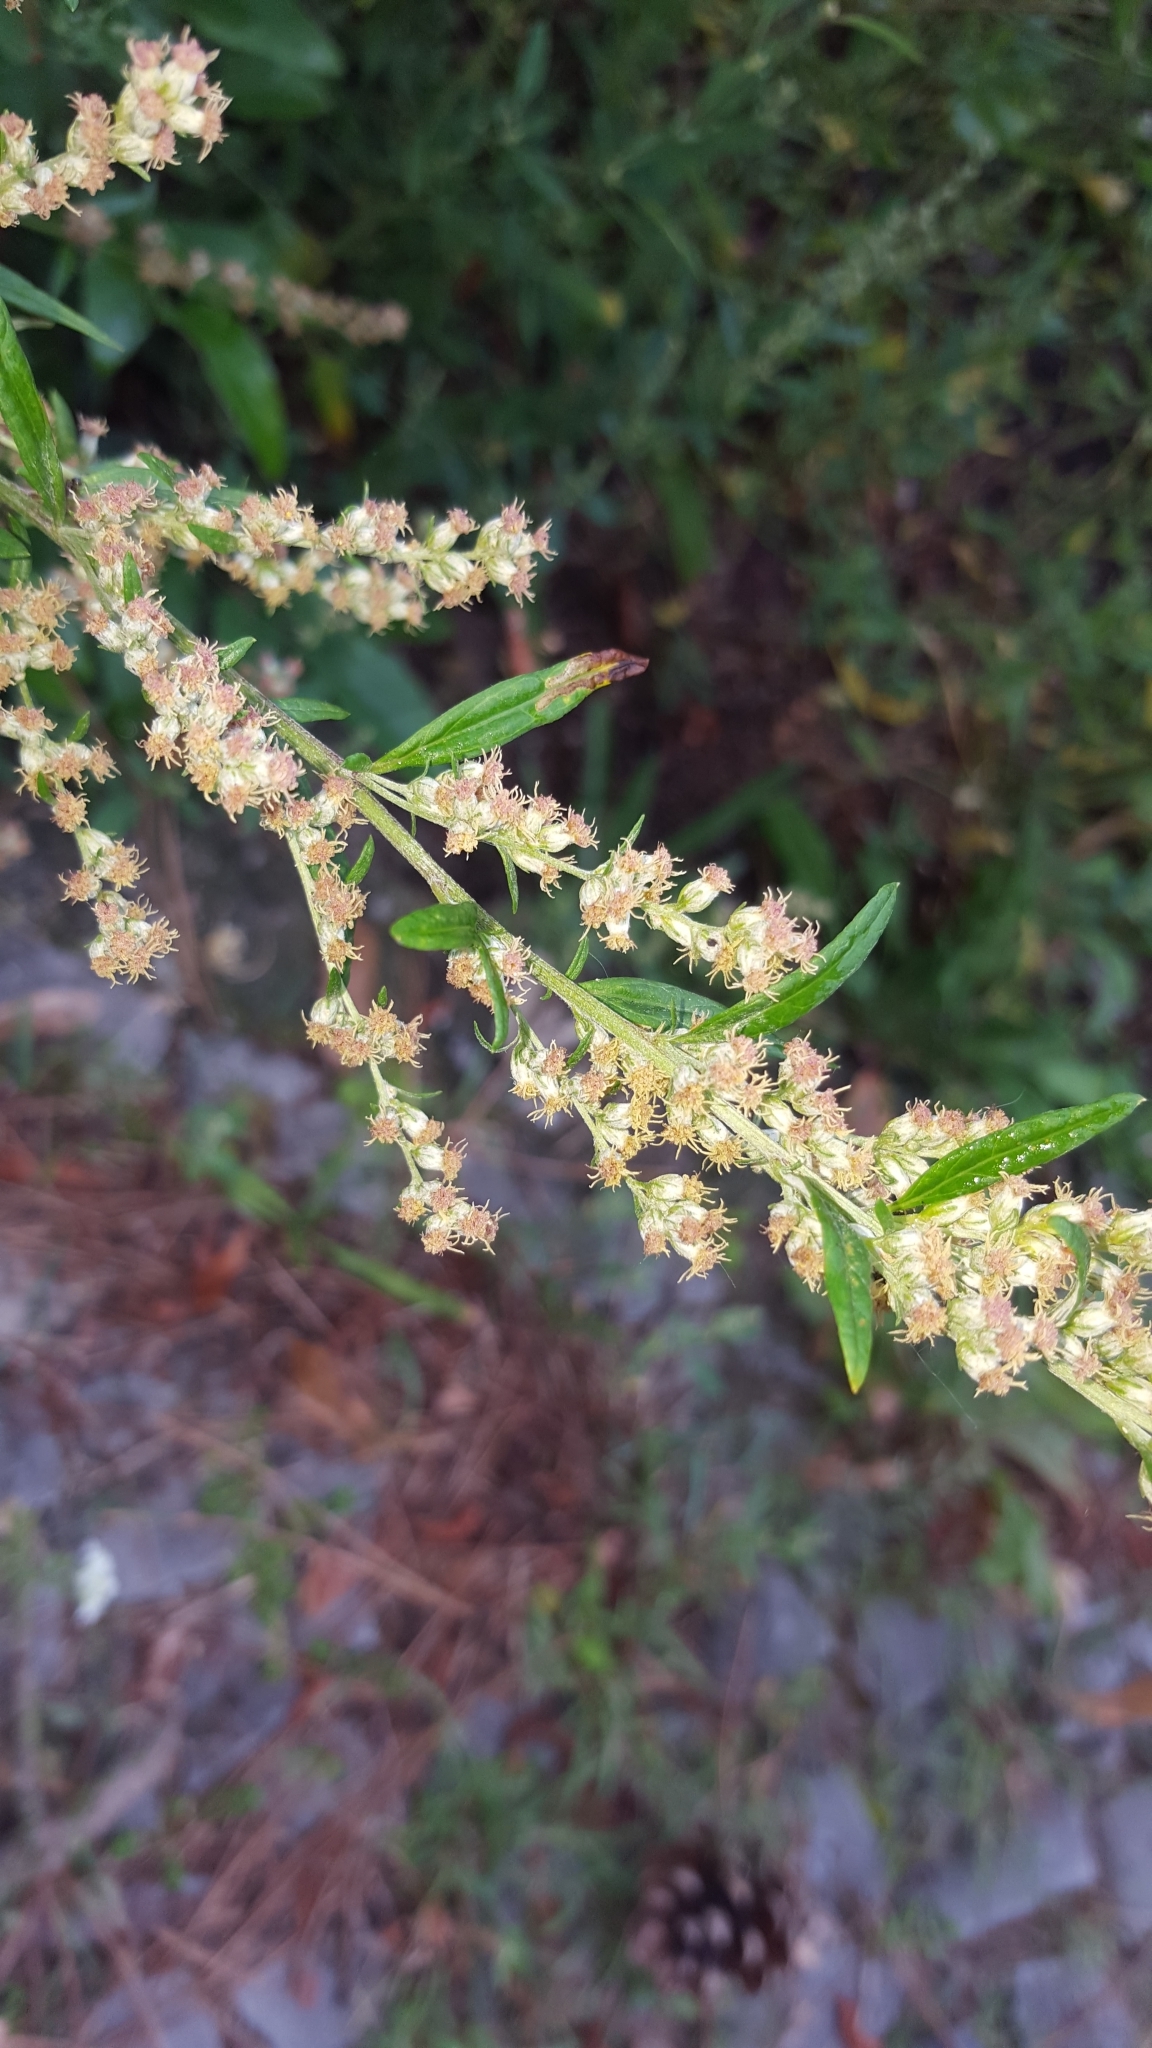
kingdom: Plantae
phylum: Tracheophyta
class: Magnoliopsida
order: Asterales
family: Asteraceae
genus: Artemisia
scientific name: Artemisia vulgaris
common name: Mugwort
